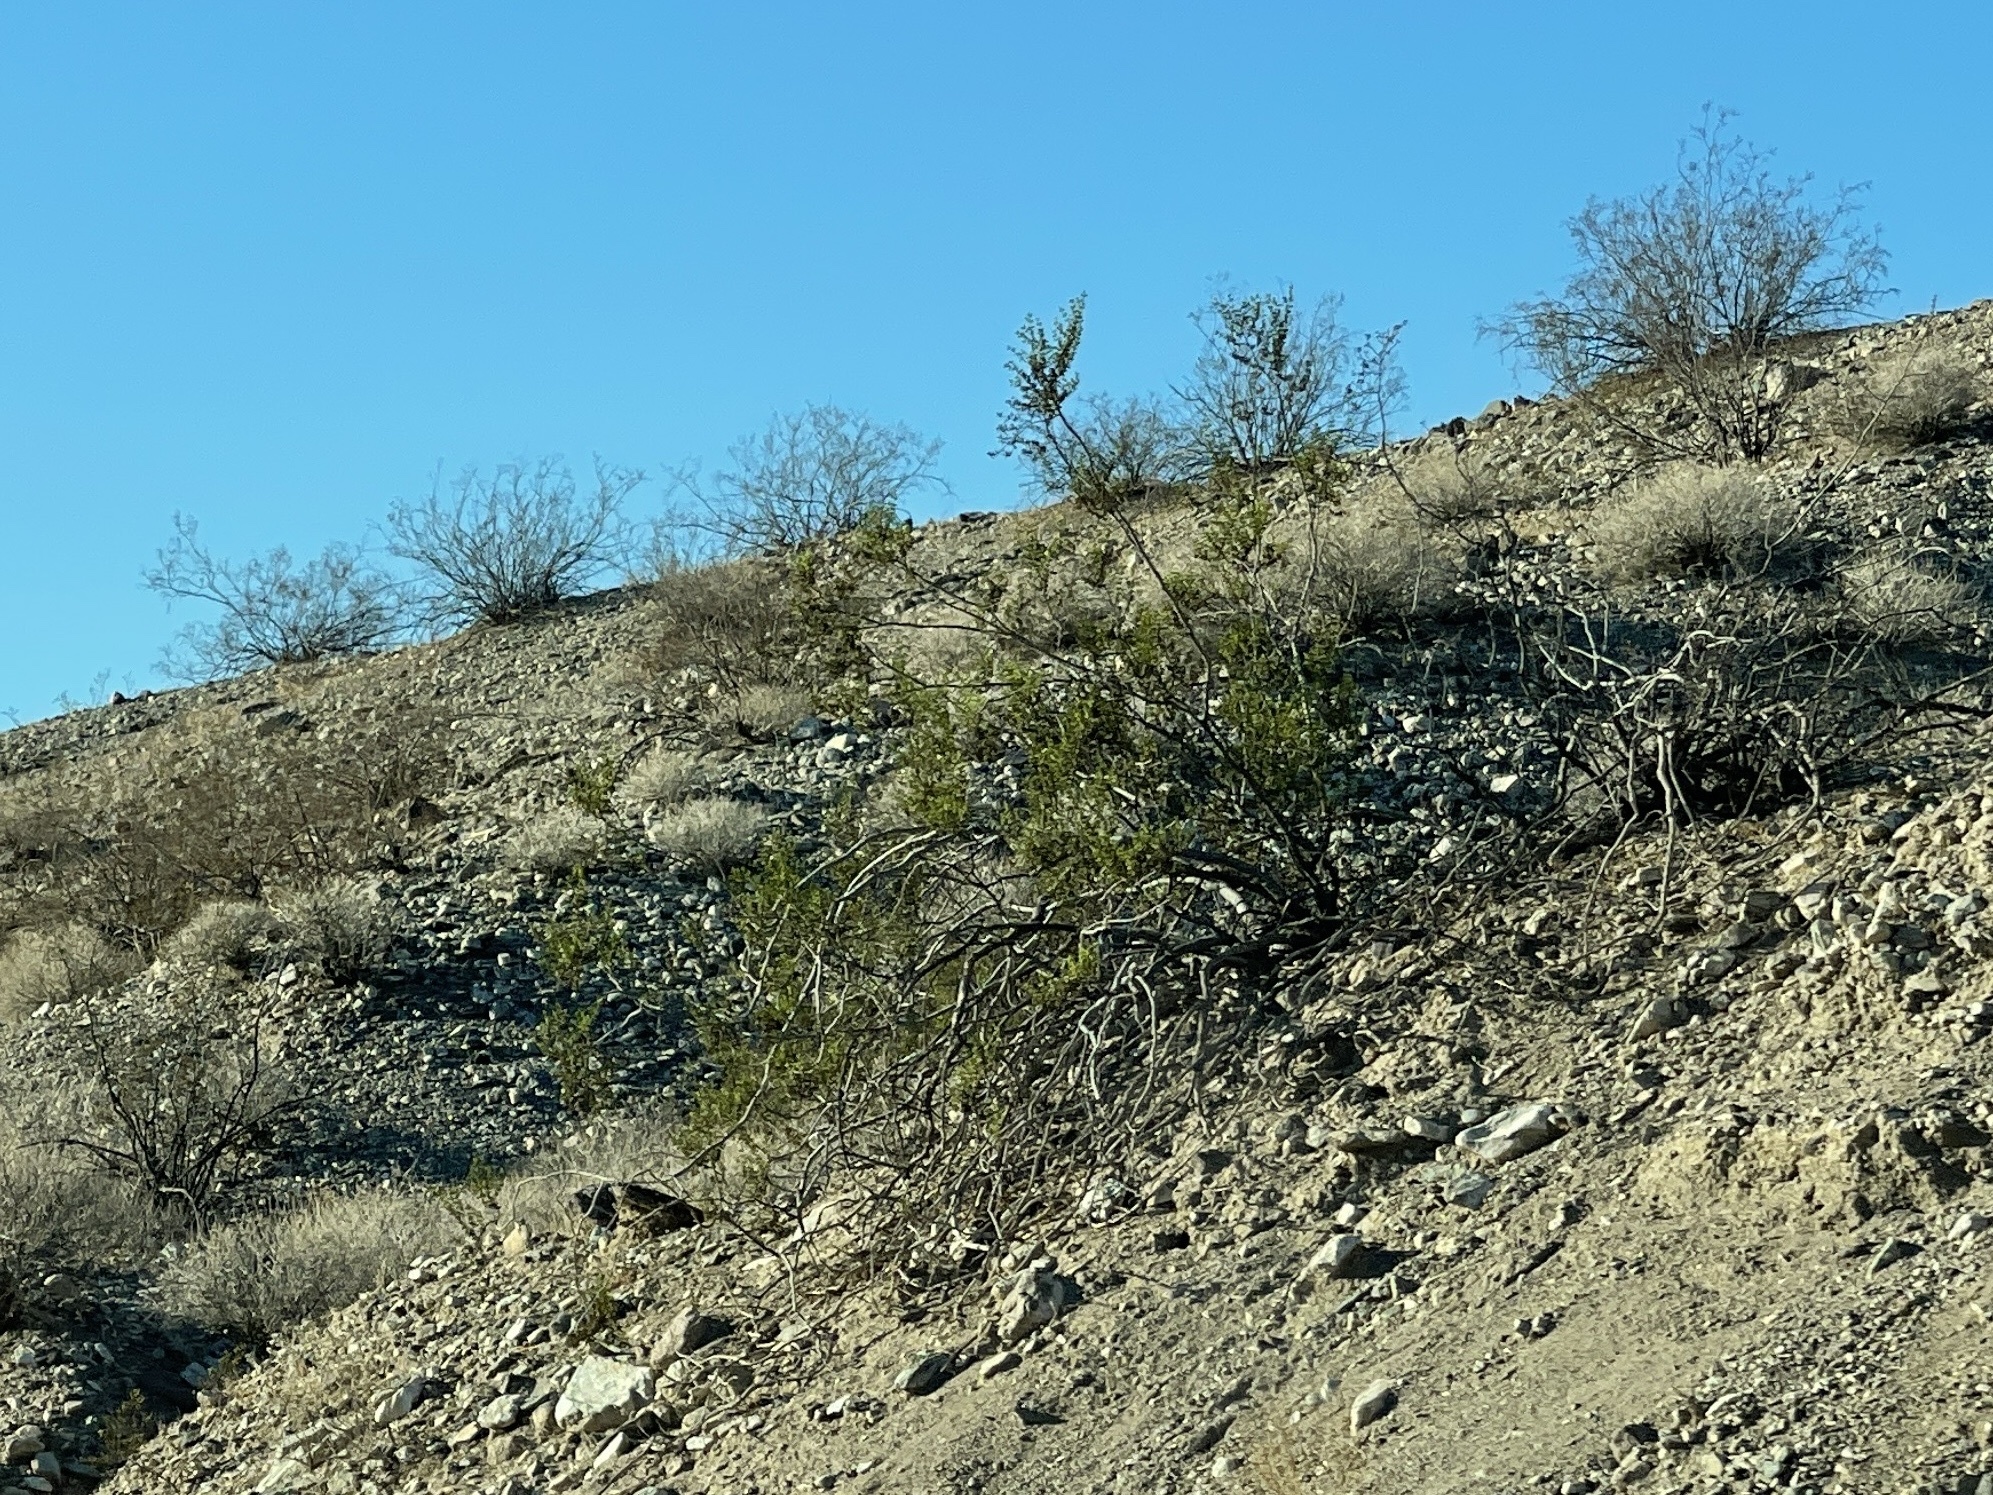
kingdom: Plantae
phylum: Tracheophyta
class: Magnoliopsida
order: Zygophyllales
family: Zygophyllaceae
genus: Larrea
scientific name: Larrea tridentata
